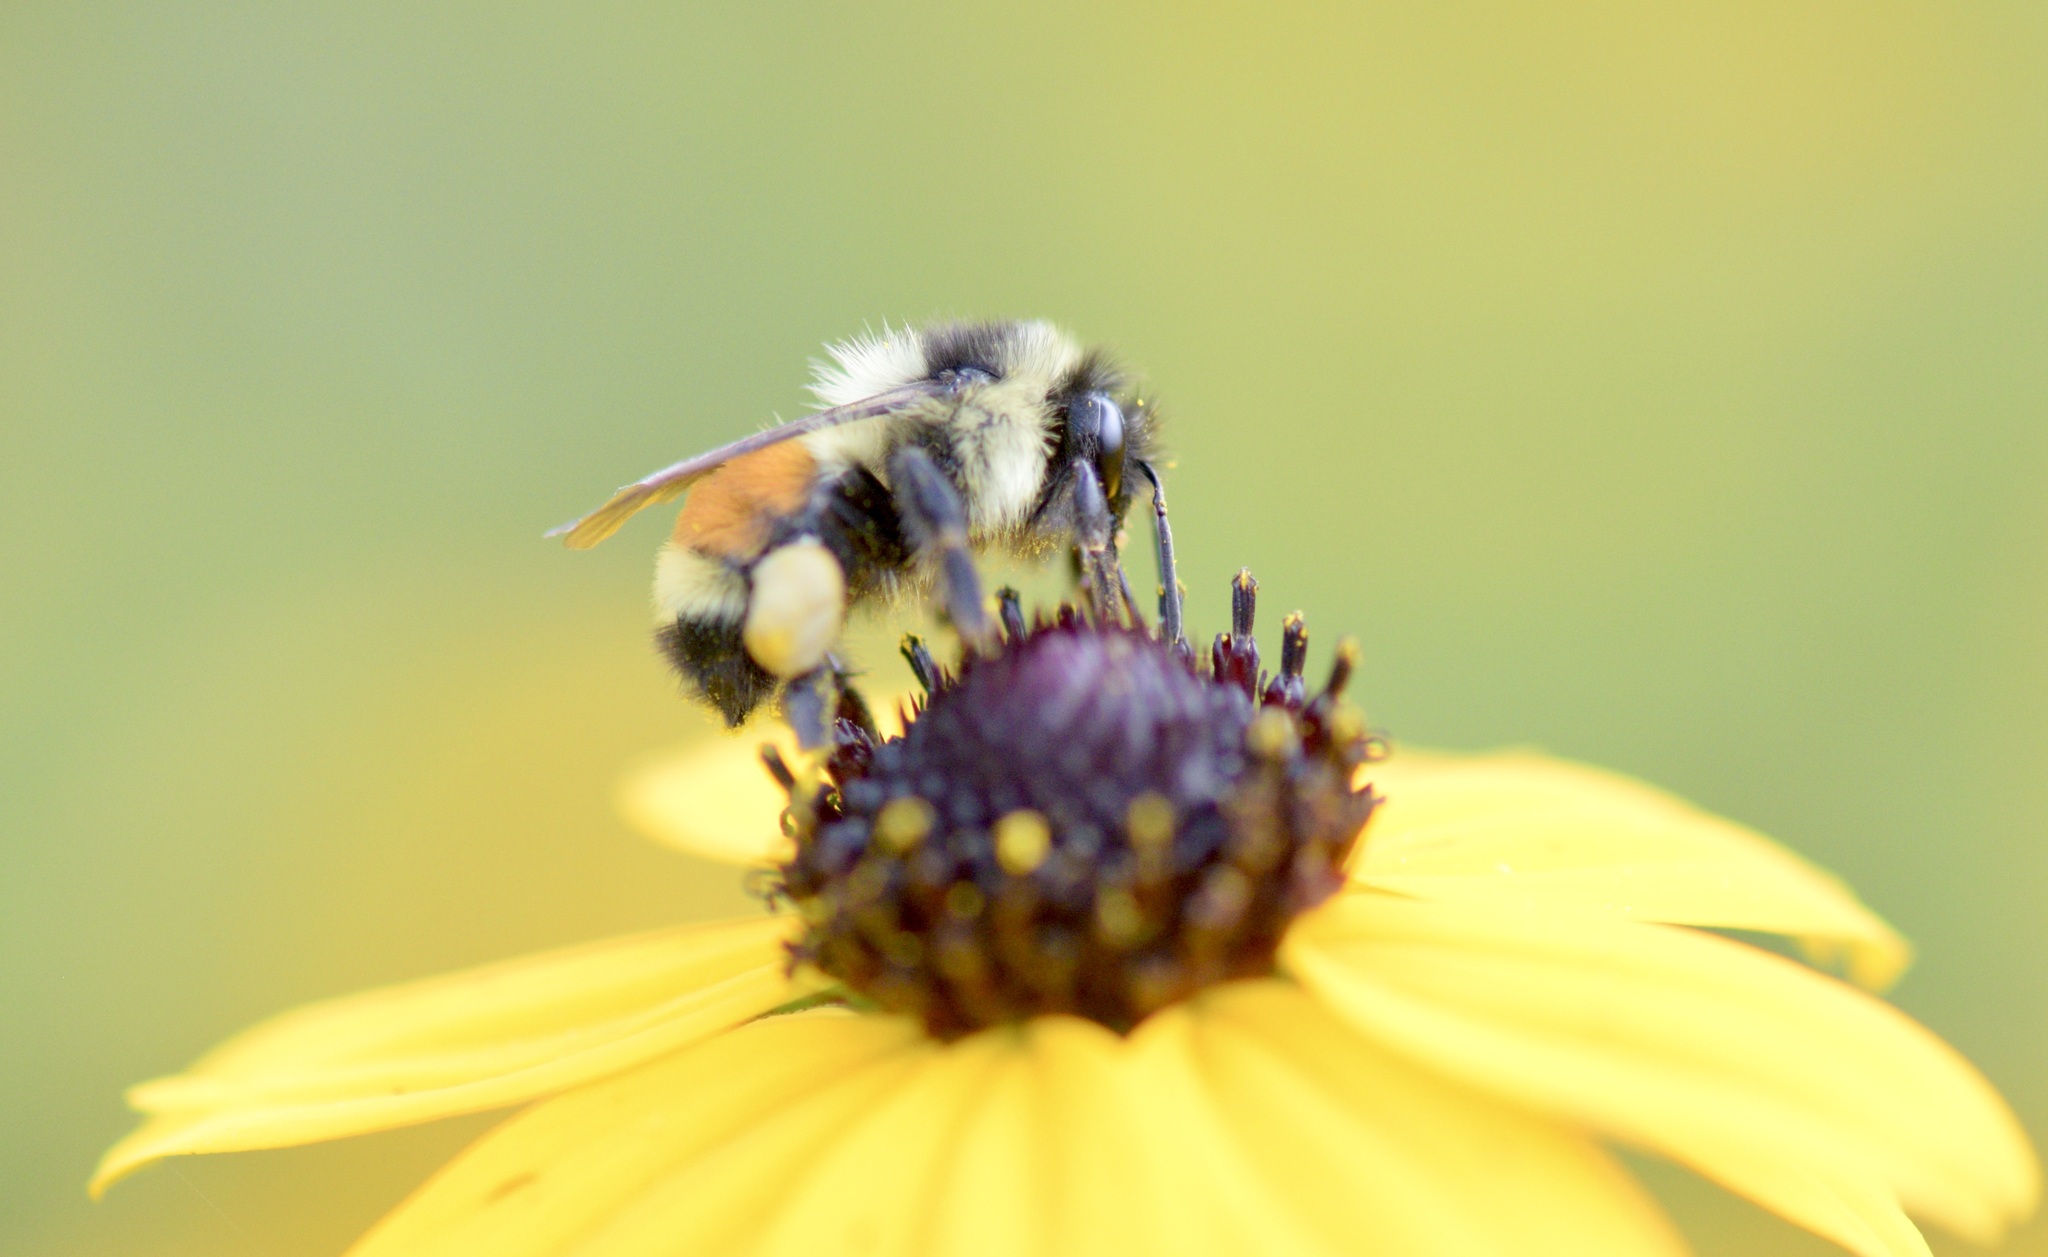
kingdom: Animalia
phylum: Arthropoda
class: Insecta
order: Hymenoptera
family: Apidae
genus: Bombus
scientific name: Bombus ternarius
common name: Tri-colored bumble bee
